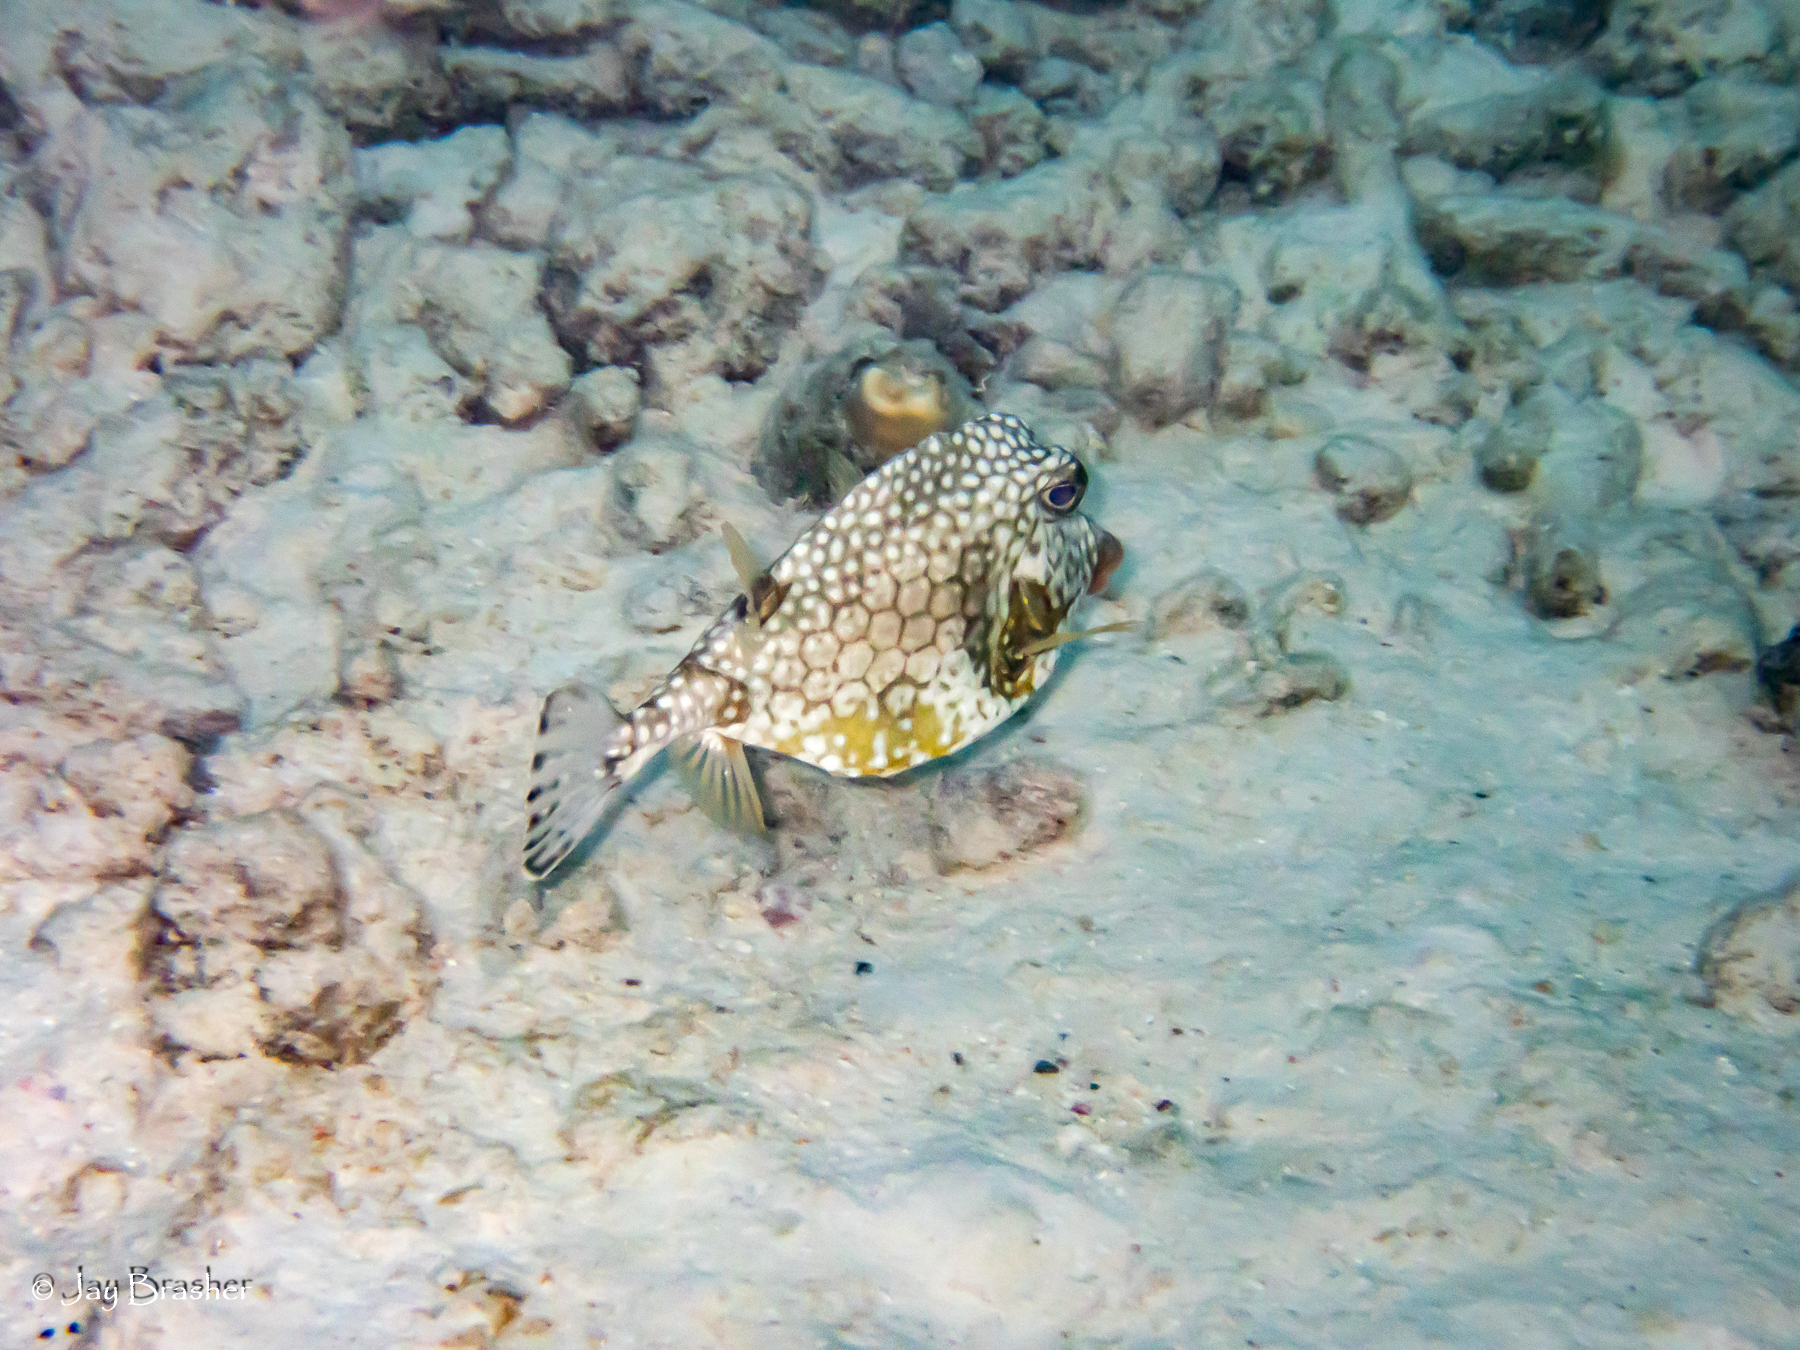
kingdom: Animalia
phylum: Chordata
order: Tetraodontiformes
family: Ostraciidae
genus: Lactophrys
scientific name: Lactophrys triqueter
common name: Smooth trunkfish
